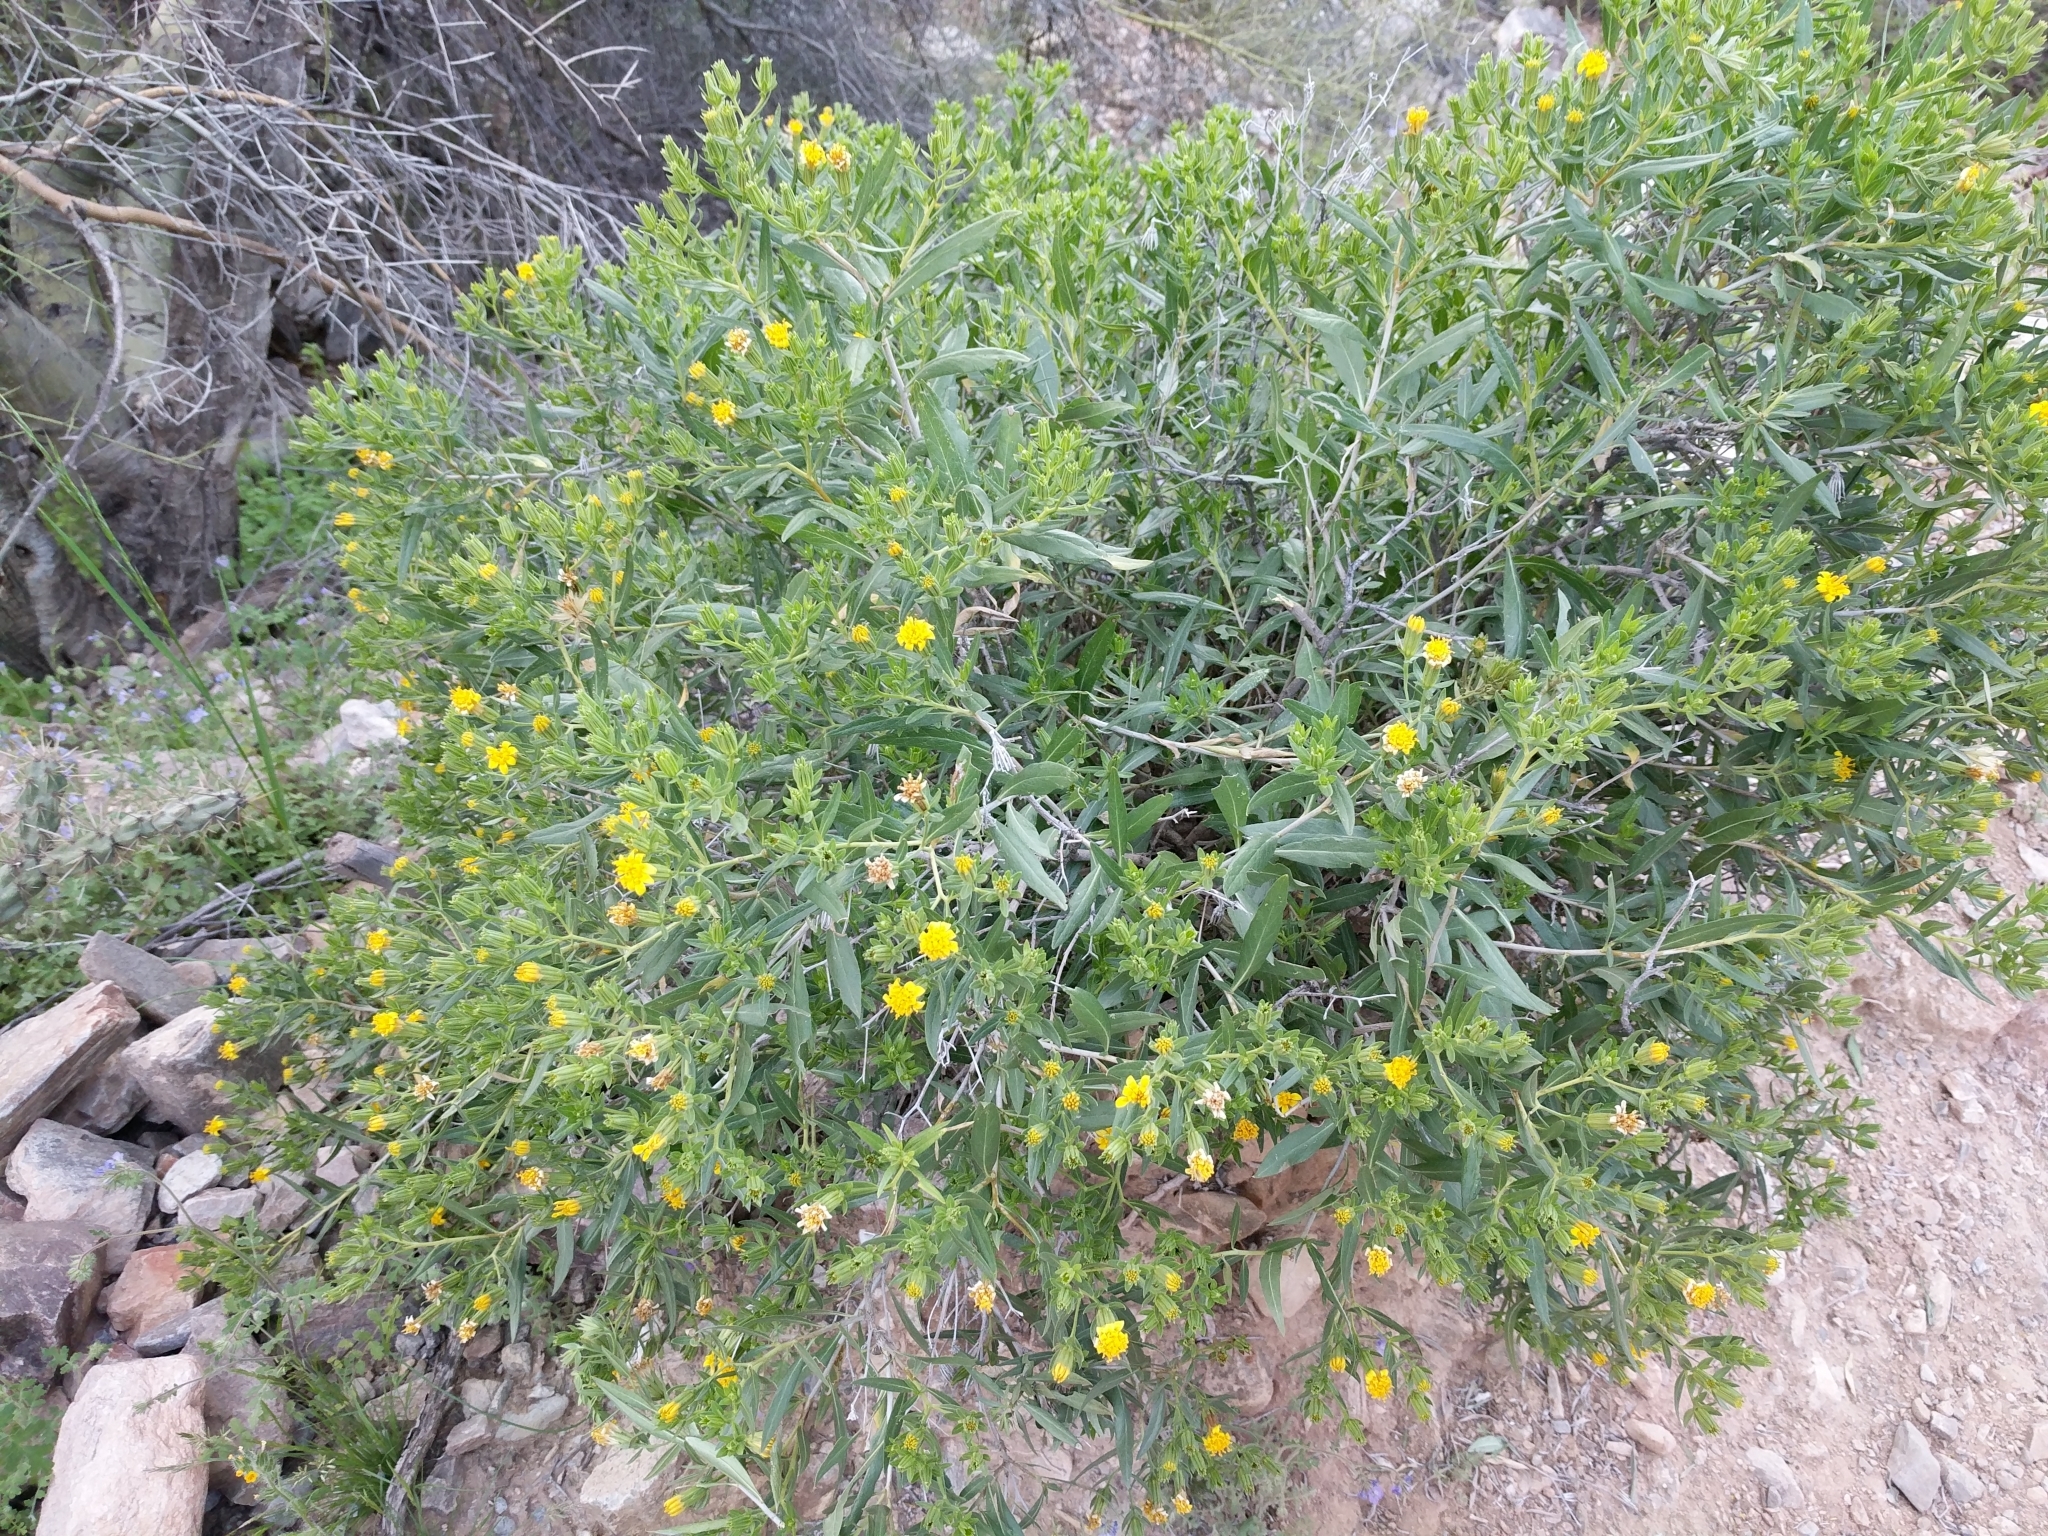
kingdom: Plantae
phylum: Tracheophyta
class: Magnoliopsida
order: Asterales
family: Asteraceae
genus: Trixis
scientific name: Trixis californica
